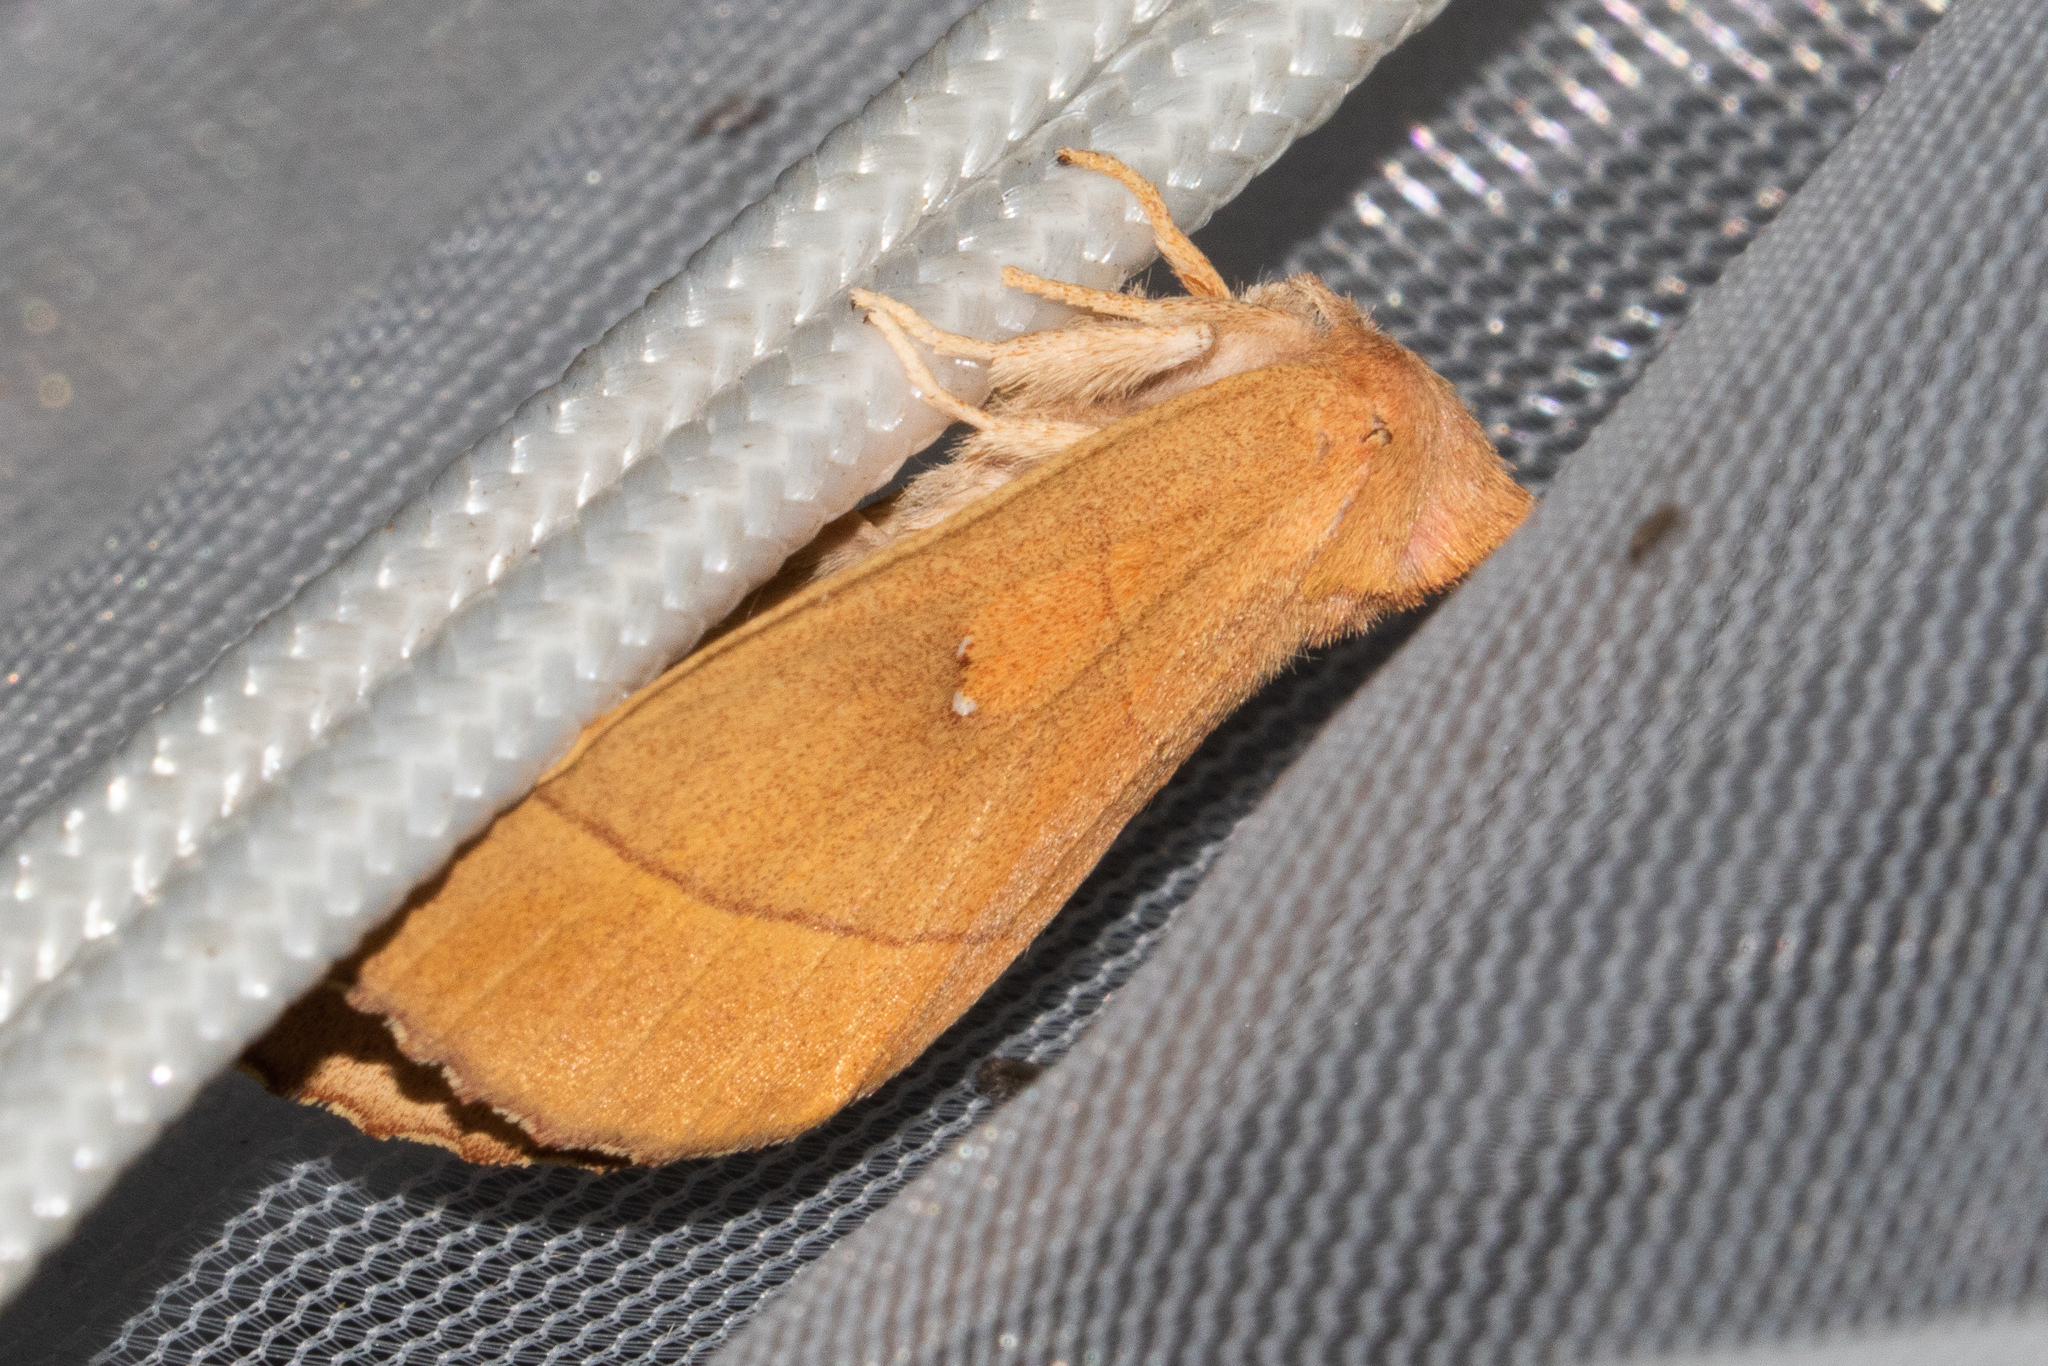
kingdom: Animalia
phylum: Arthropoda
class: Insecta
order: Lepidoptera
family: Notodontidae
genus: Nadata
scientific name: Nadata gibbosa
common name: White-dotted prominent
